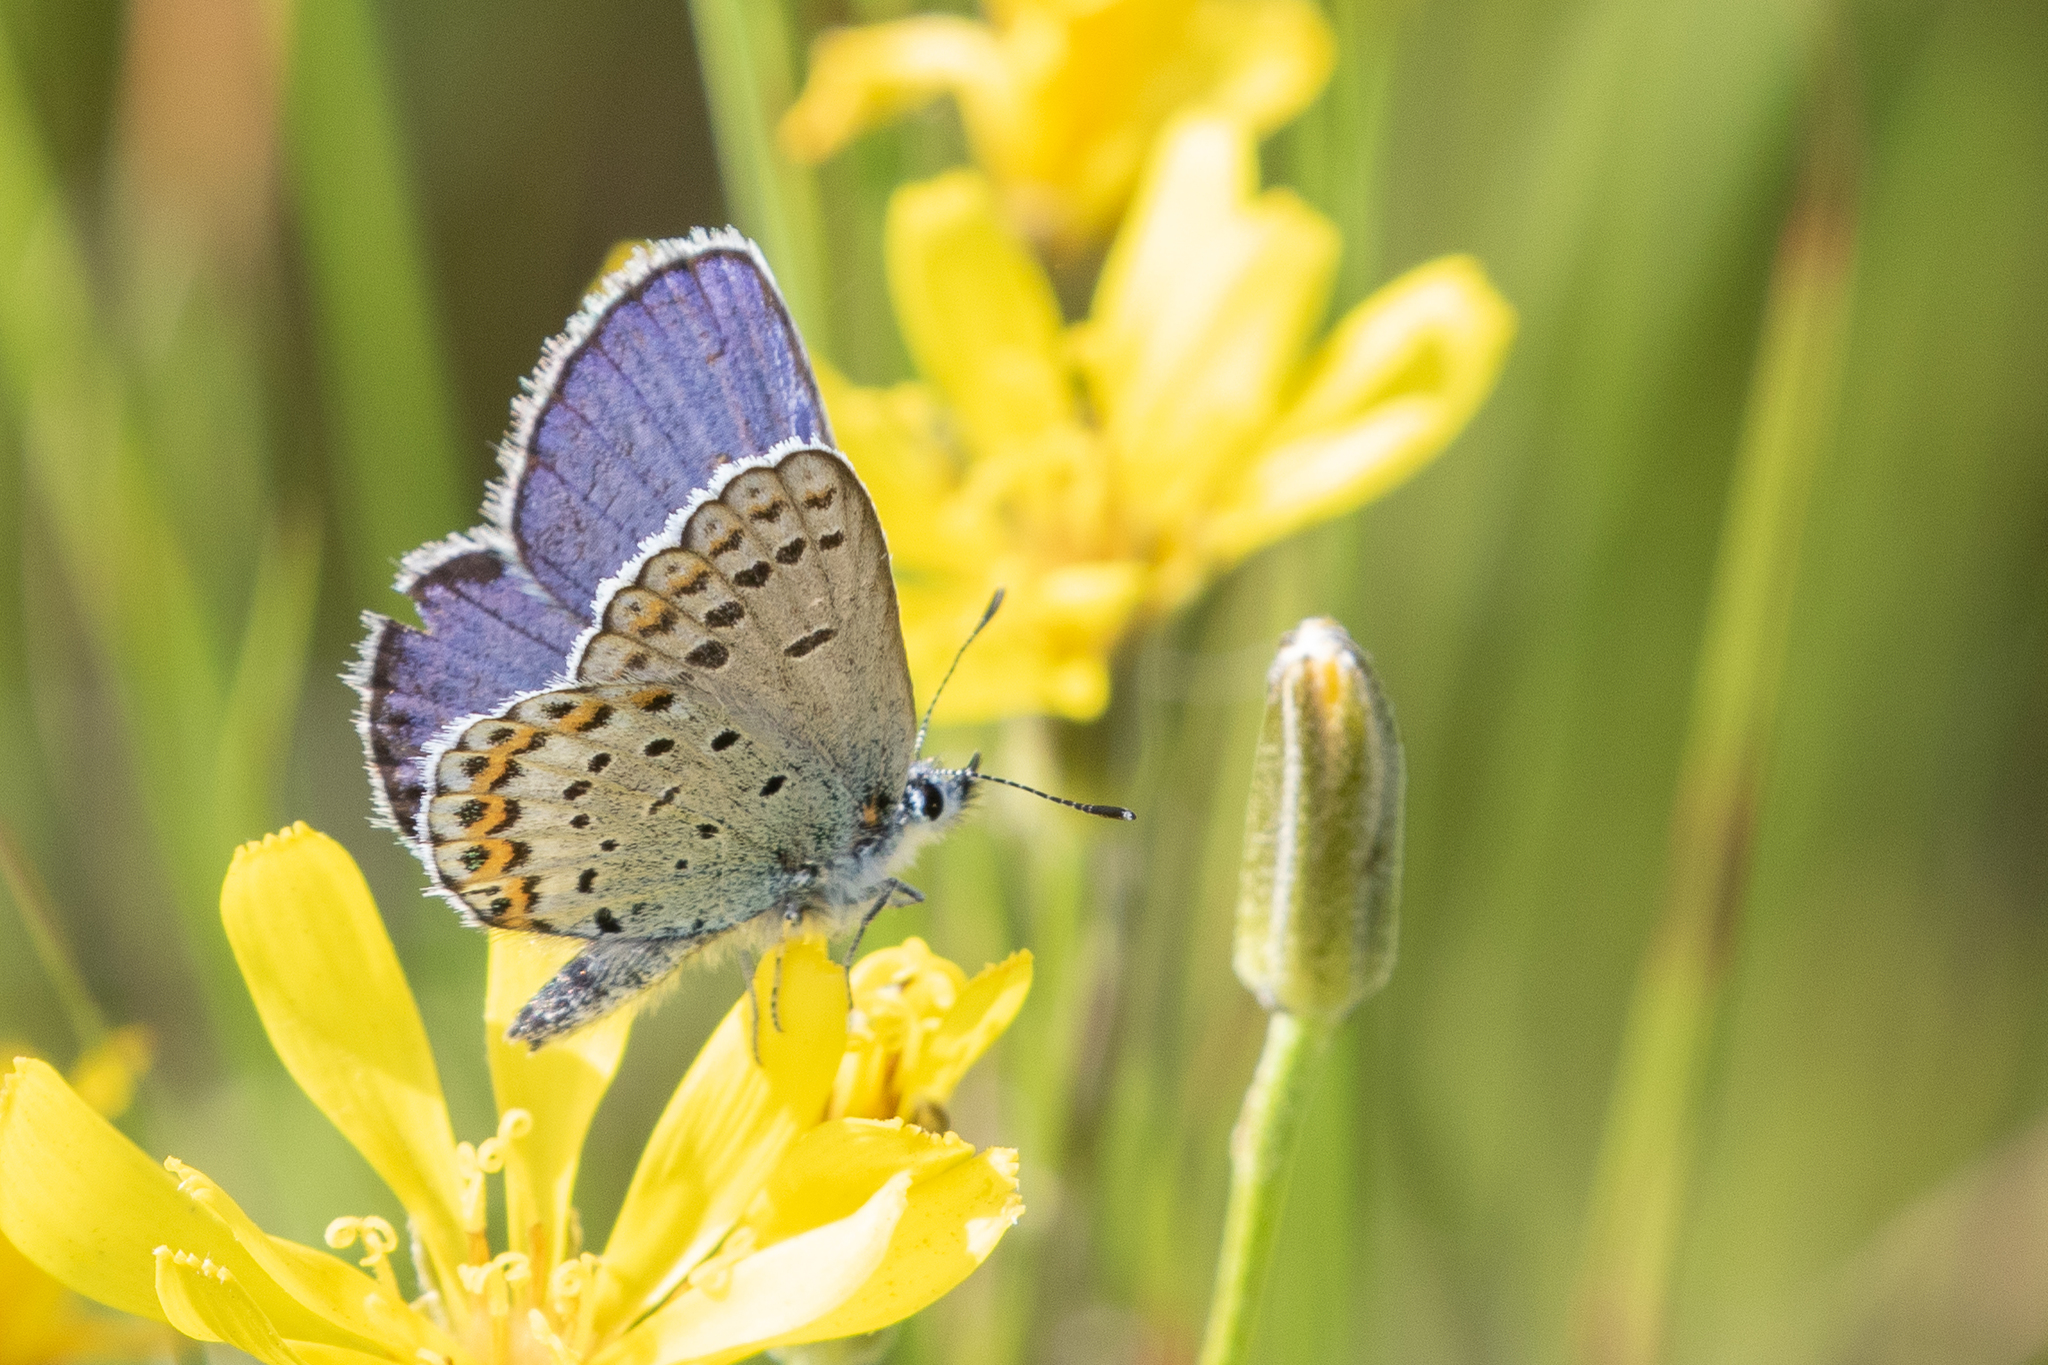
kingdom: Animalia
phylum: Arthropoda
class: Insecta
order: Lepidoptera
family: Lycaenidae
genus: Lycaeides
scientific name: Lycaeides melissa
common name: Melissa blue
